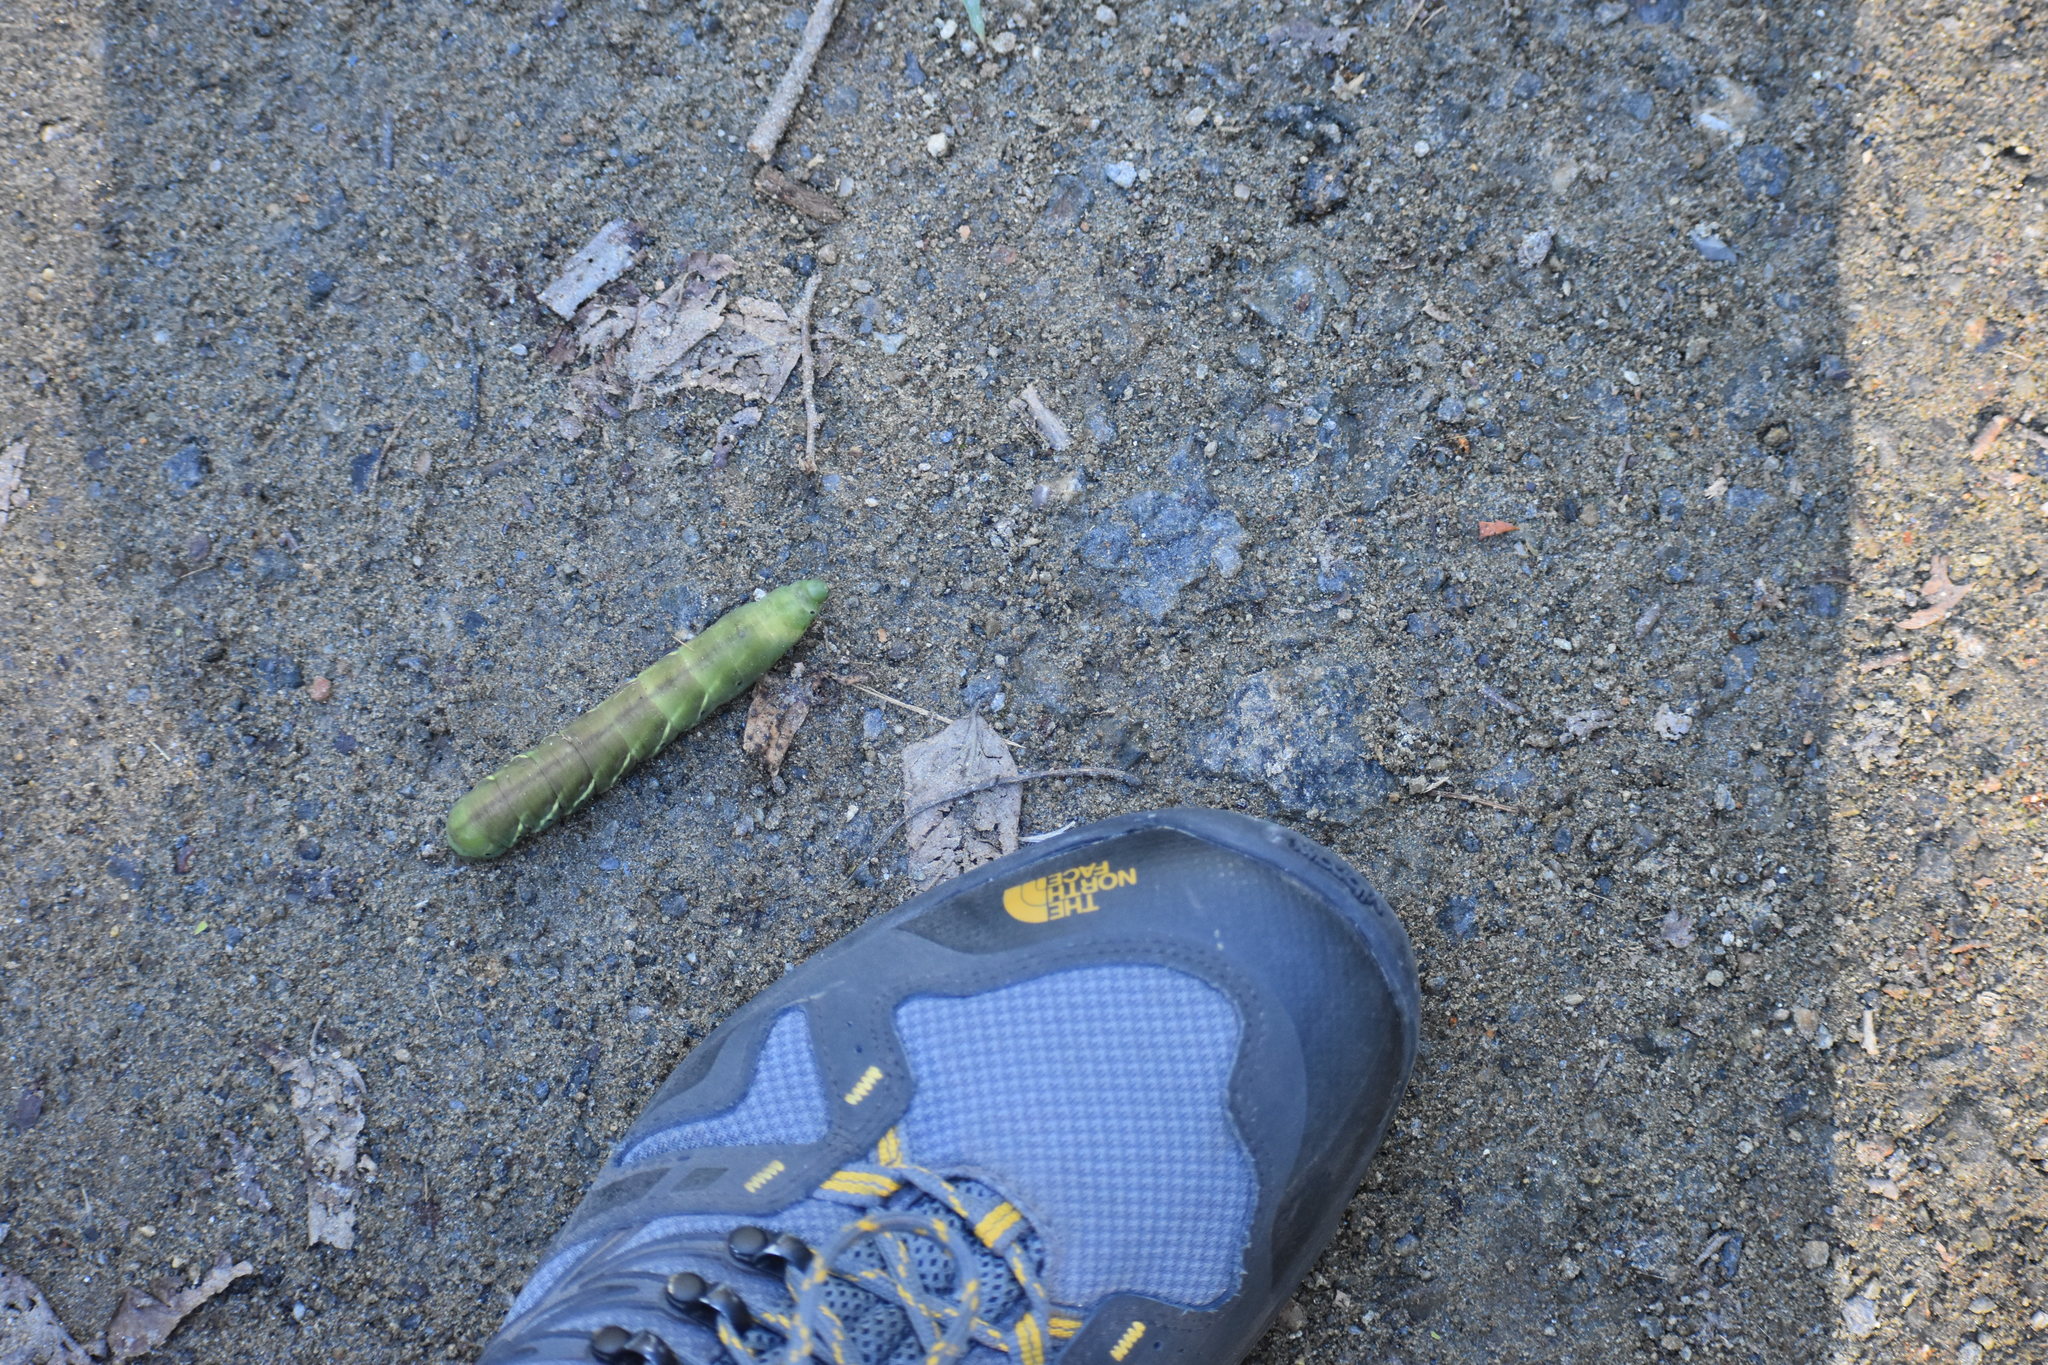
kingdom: Animalia
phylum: Arthropoda
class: Insecta
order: Lepidoptera
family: Sphingidae
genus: Eumorpha
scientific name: Eumorpha fasciatus
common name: Banded sphinx
